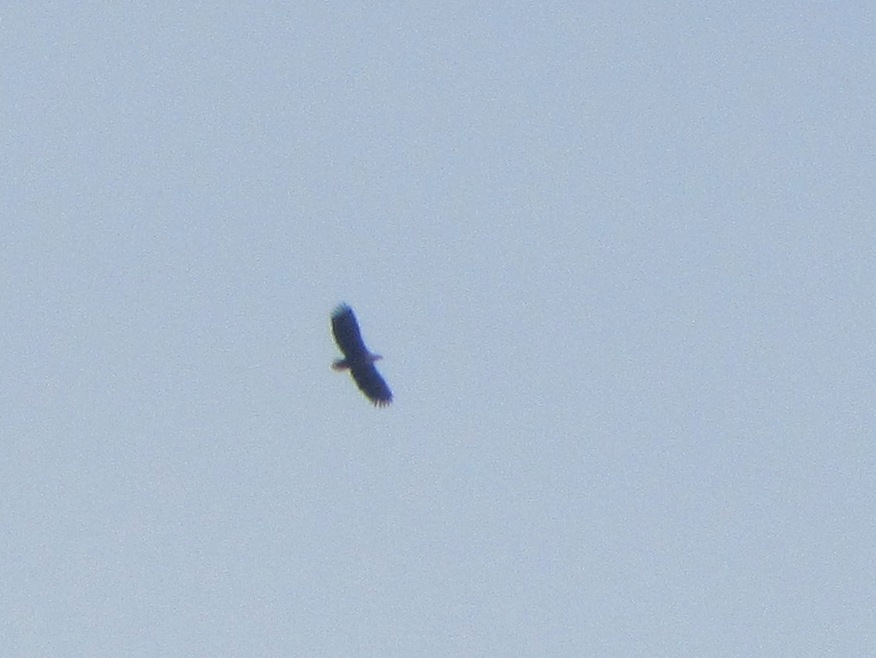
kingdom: Animalia
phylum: Chordata
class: Aves
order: Accipitriformes
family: Accipitridae
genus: Haliaeetus
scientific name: Haliaeetus albicilla
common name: White-tailed eagle
